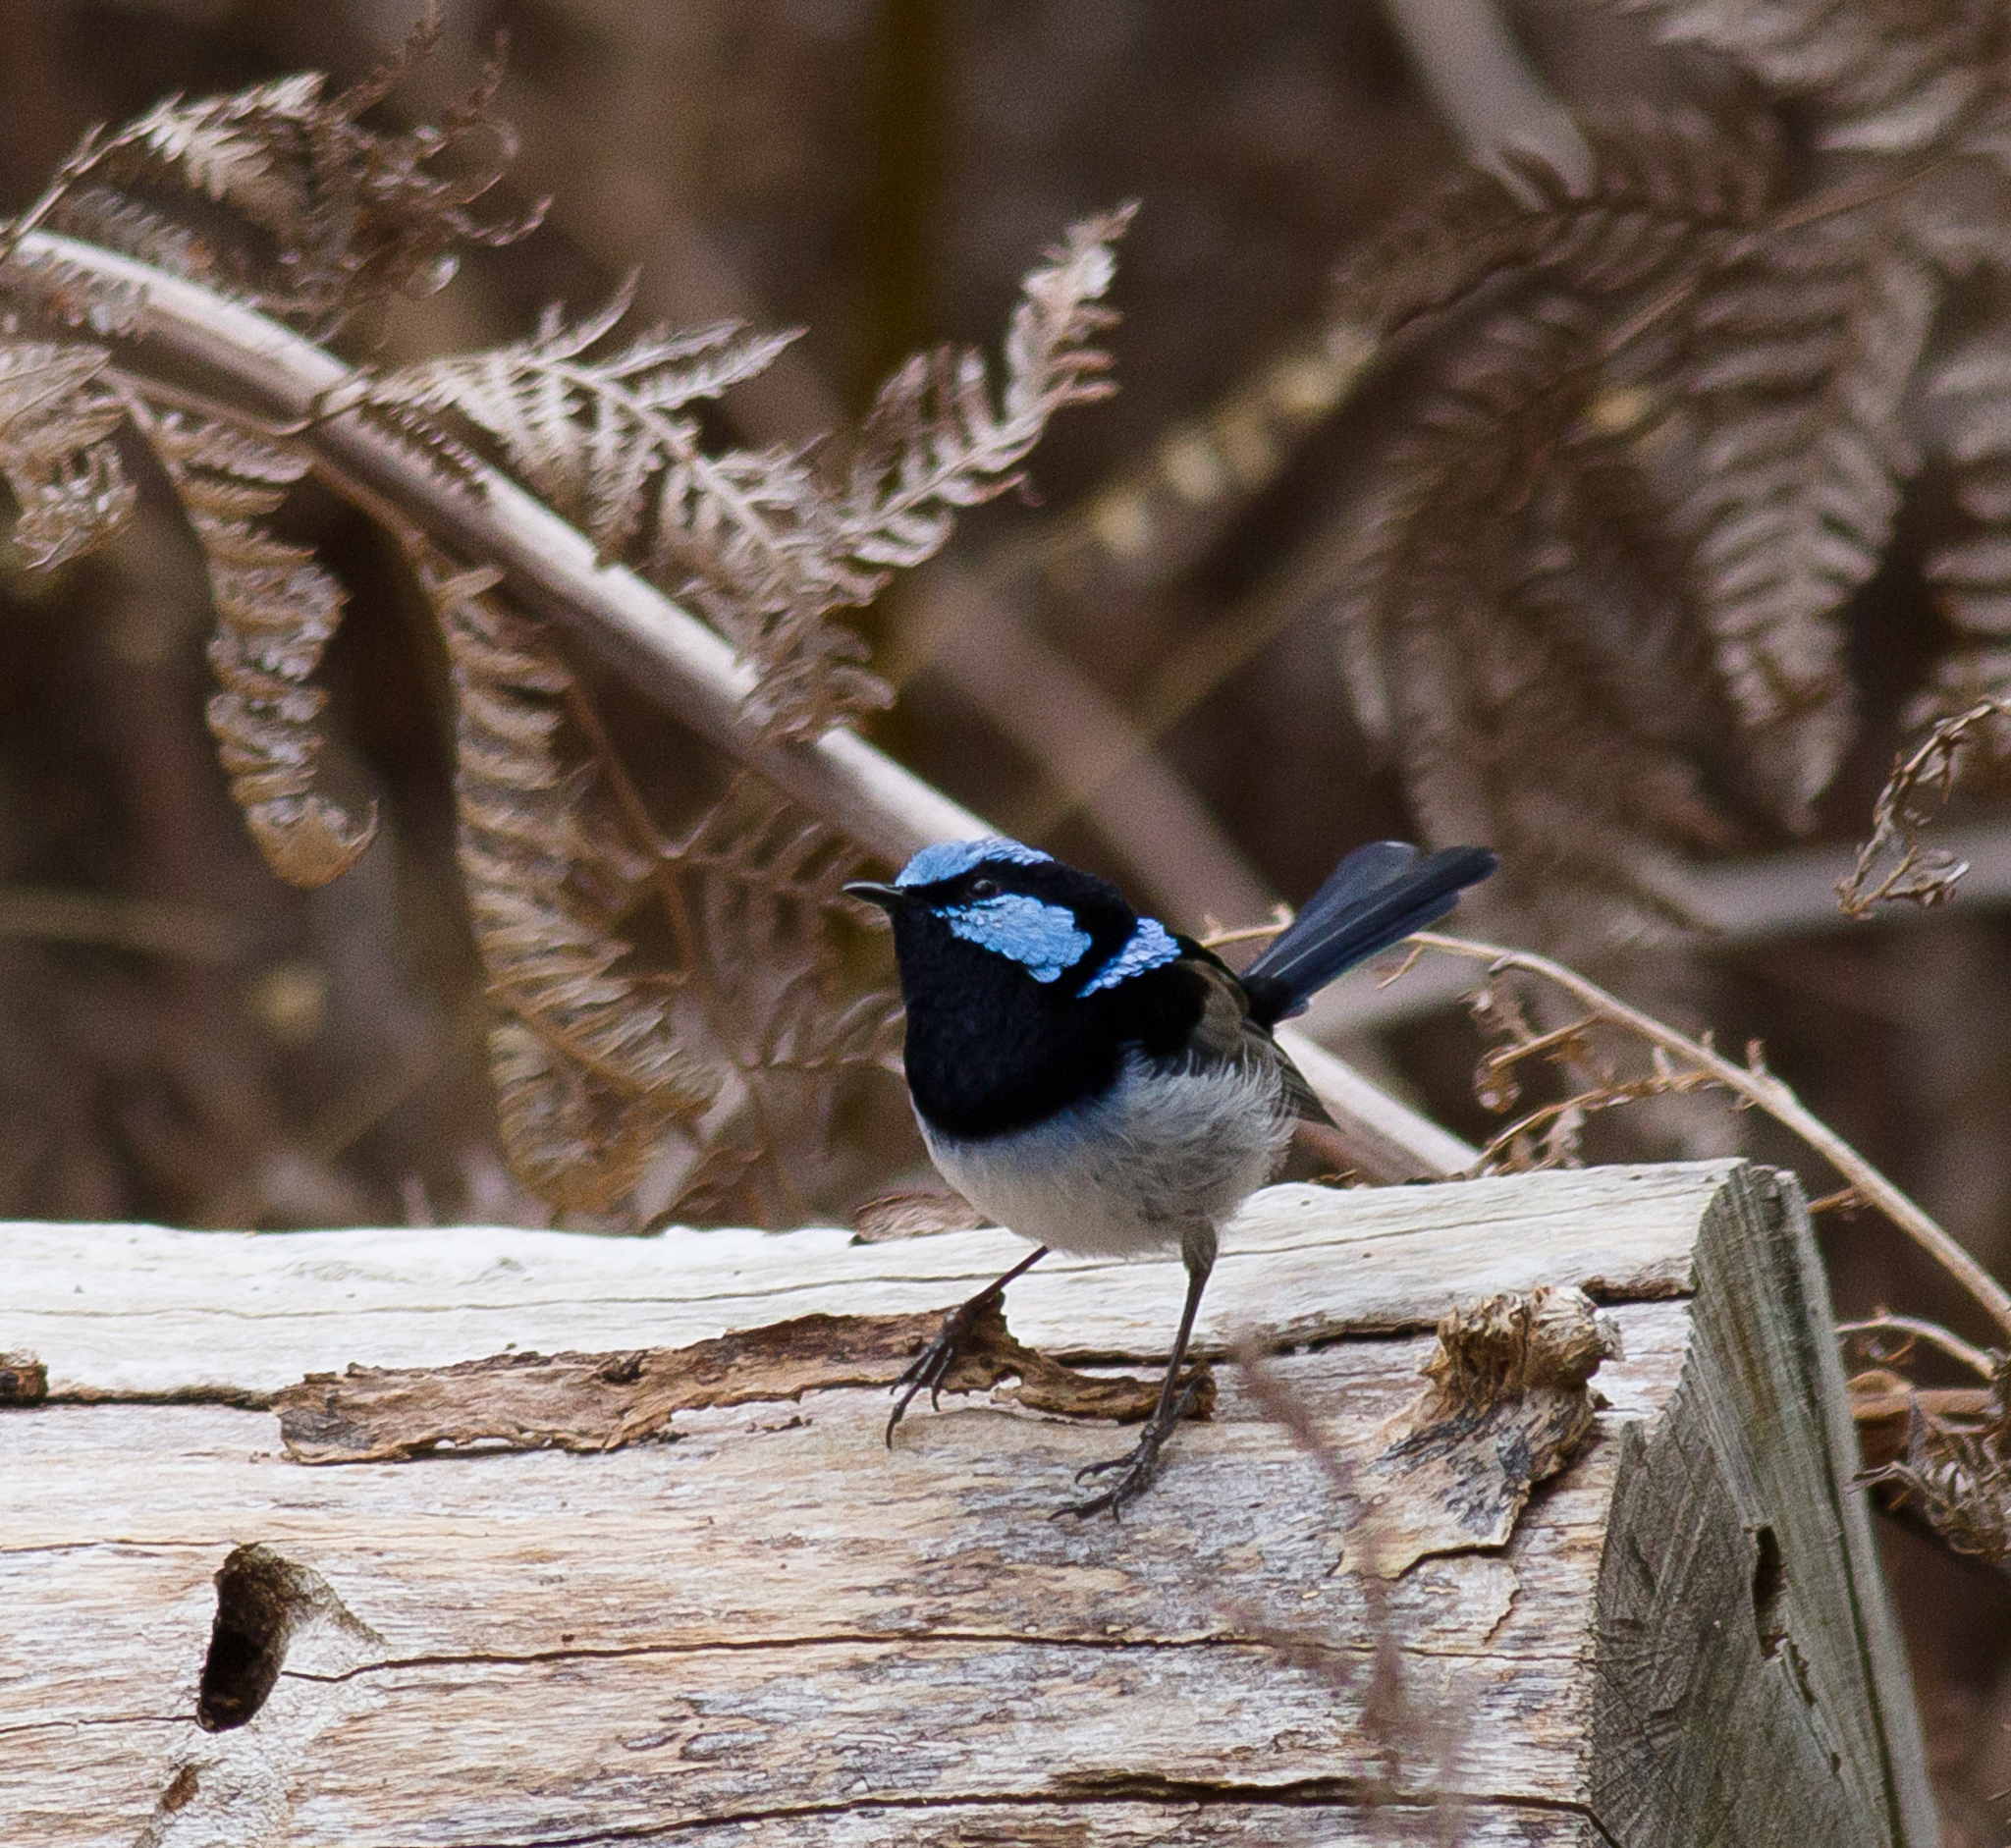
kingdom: Animalia
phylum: Chordata
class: Aves
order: Passeriformes
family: Maluridae
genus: Malurus
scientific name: Malurus cyaneus
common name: Superb fairywren
